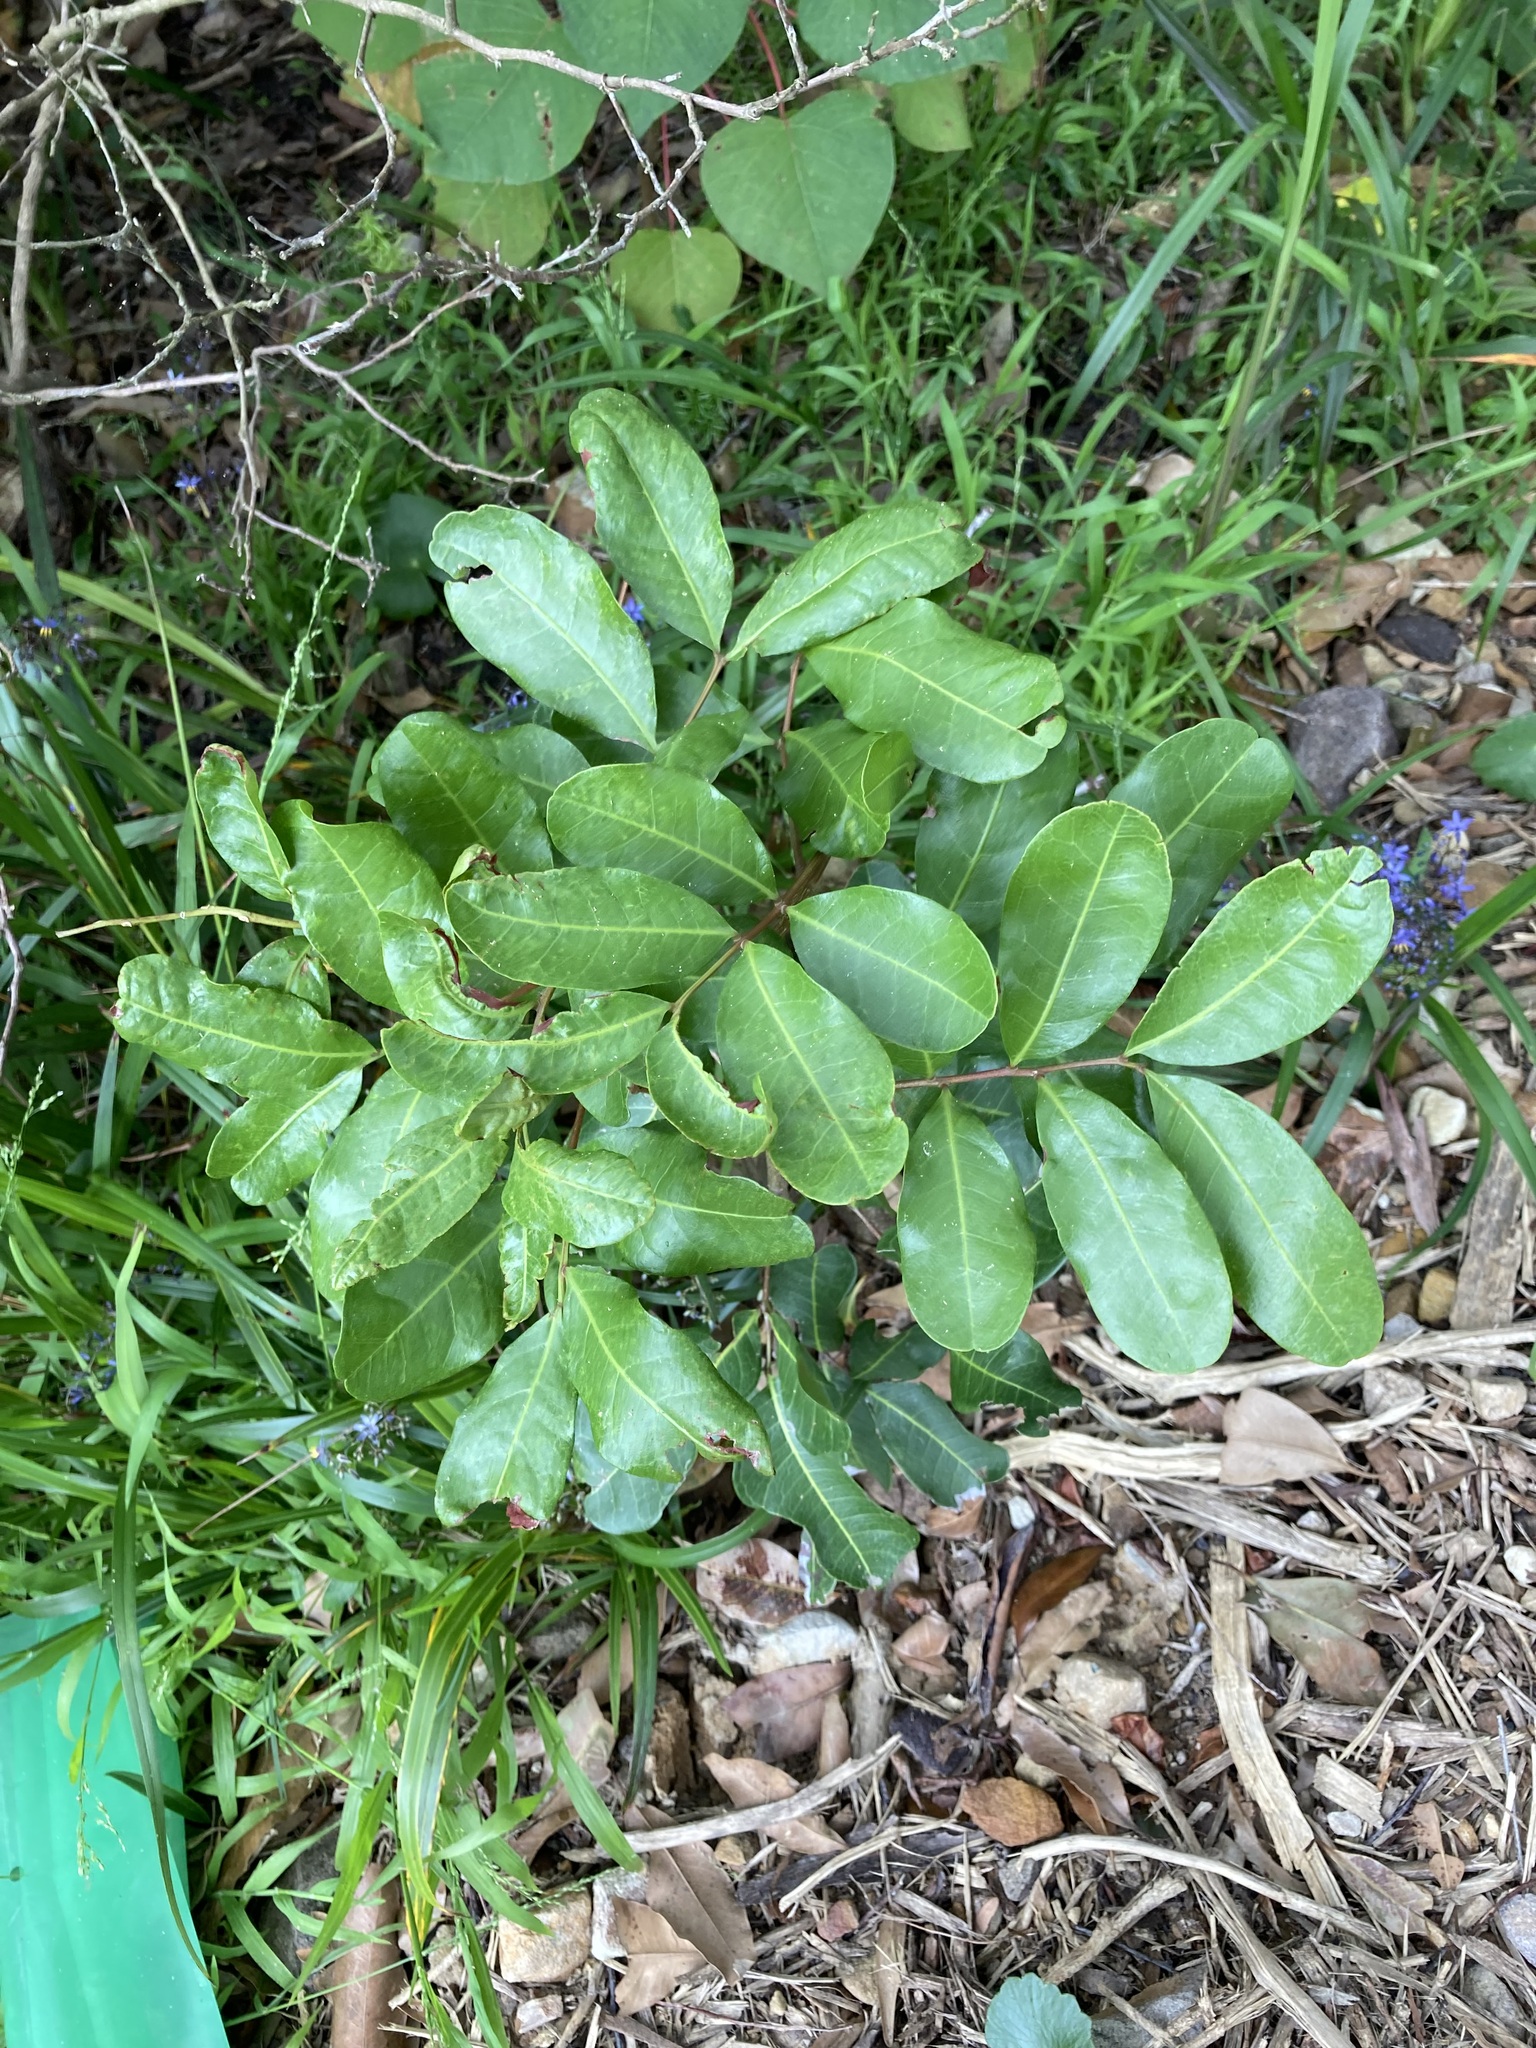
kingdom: Plantae
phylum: Tracheophyta
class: Magnoliopsida
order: Sapindales
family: Sapindaceae
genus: Cupaniopsis
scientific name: Cupaniopsis anacardioides
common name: Carrotwood
